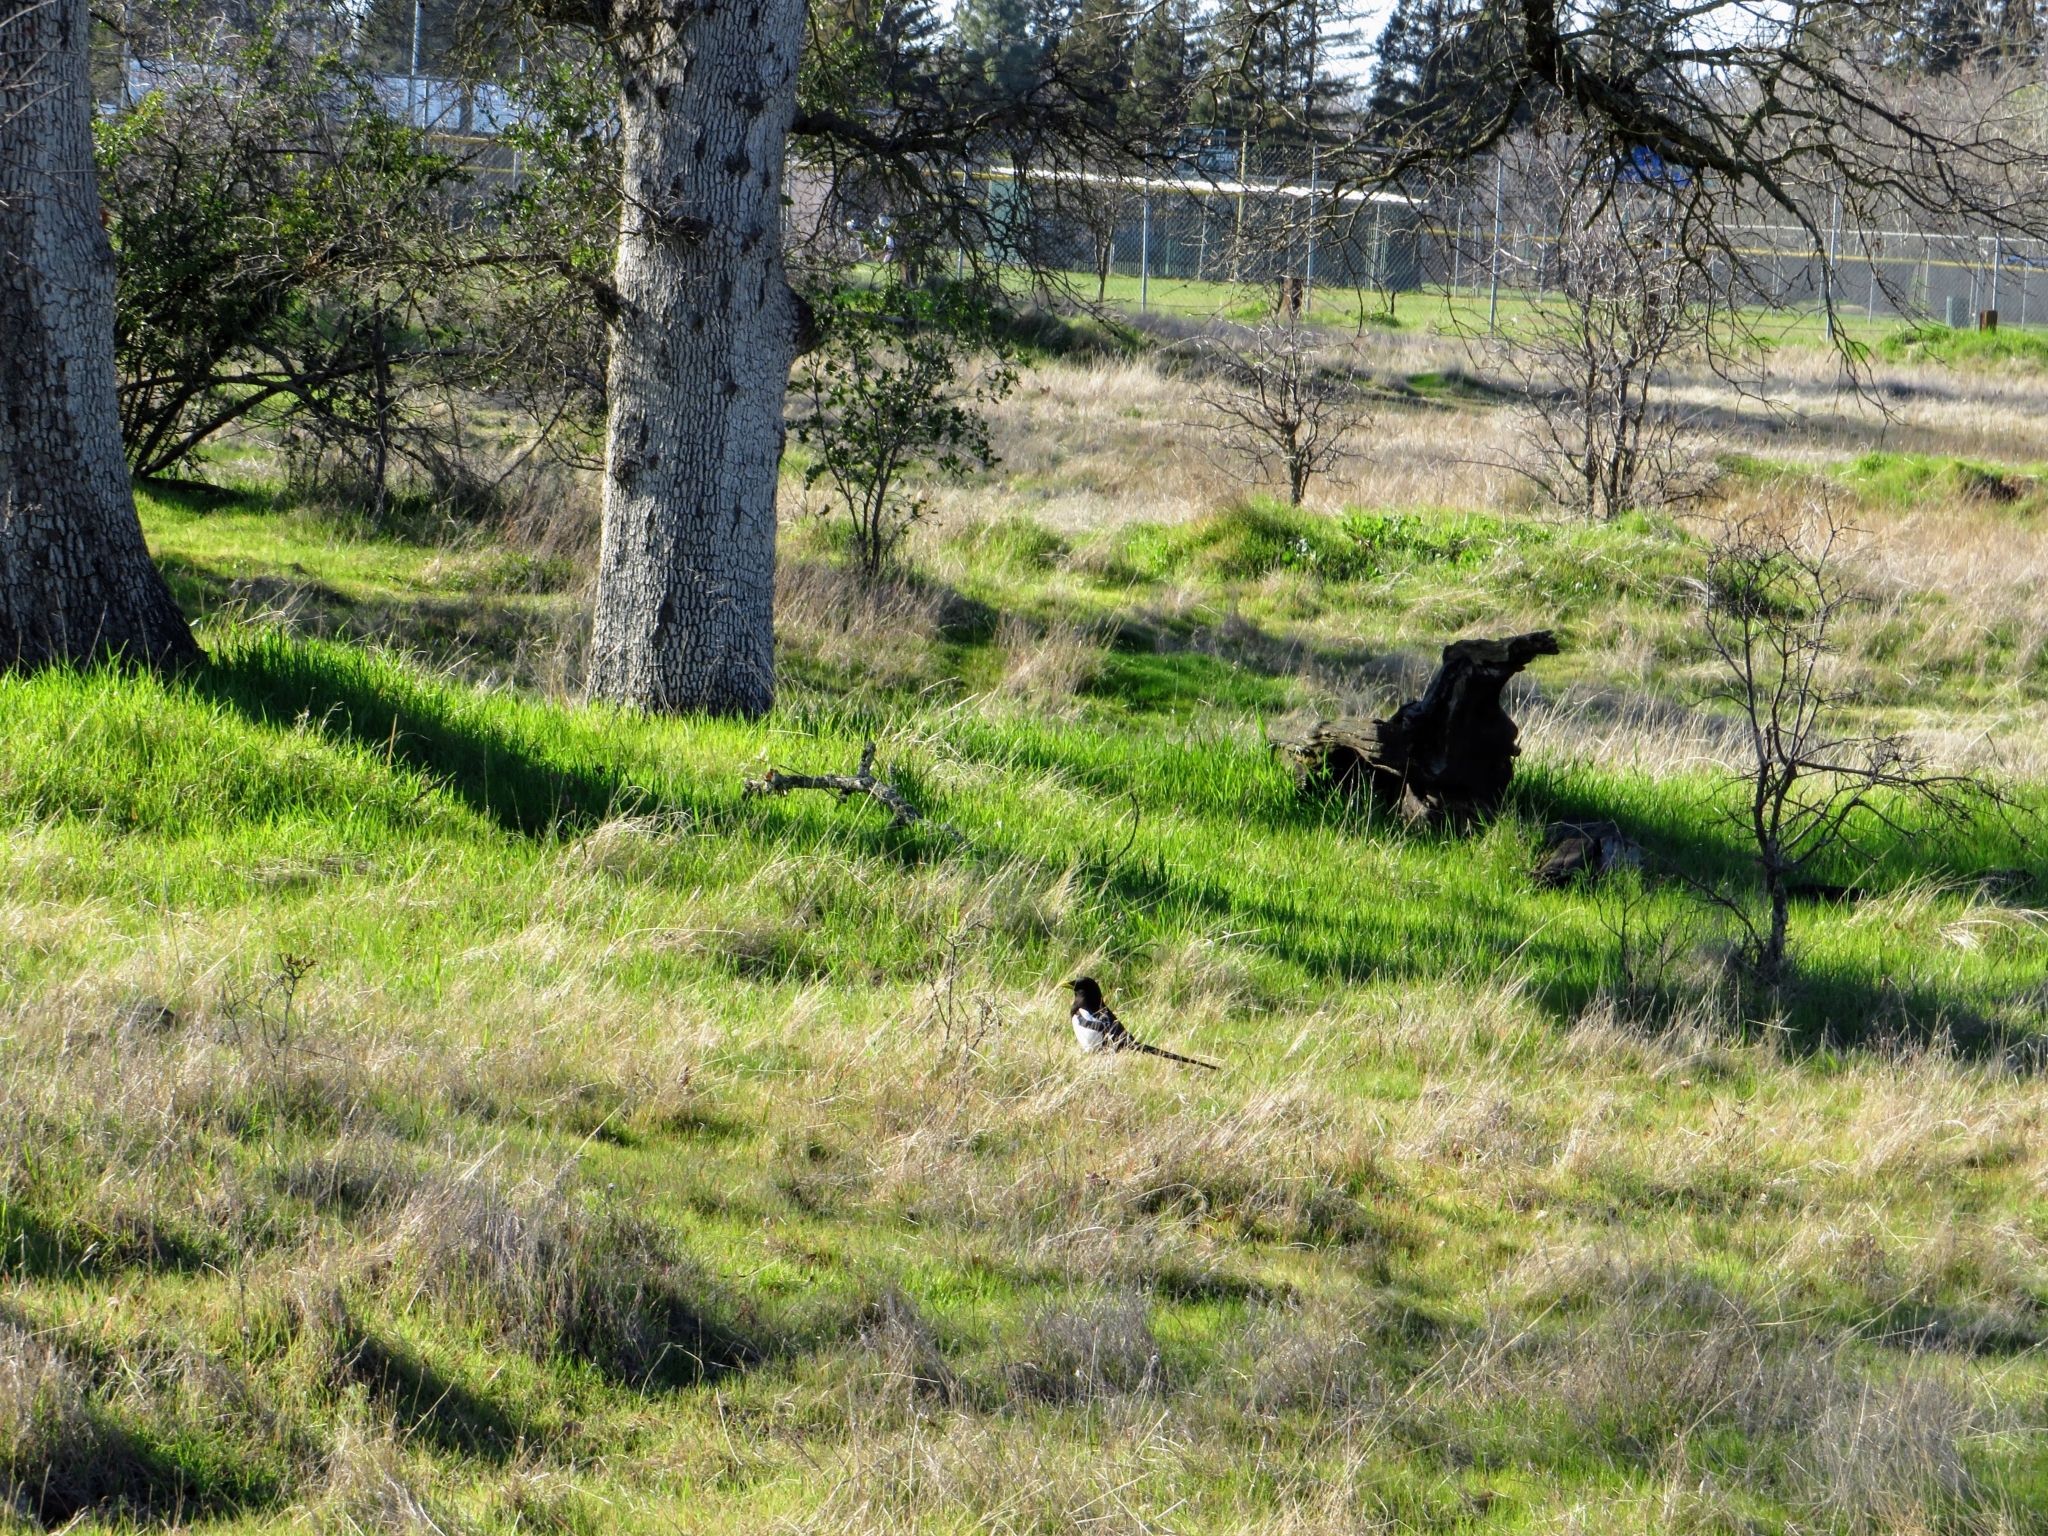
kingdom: Animalia
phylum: Chordata
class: Aves
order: Passeriformes
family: Corvidae
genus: Pica
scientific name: Pica nuttalli
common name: Yellow-billed magpie
